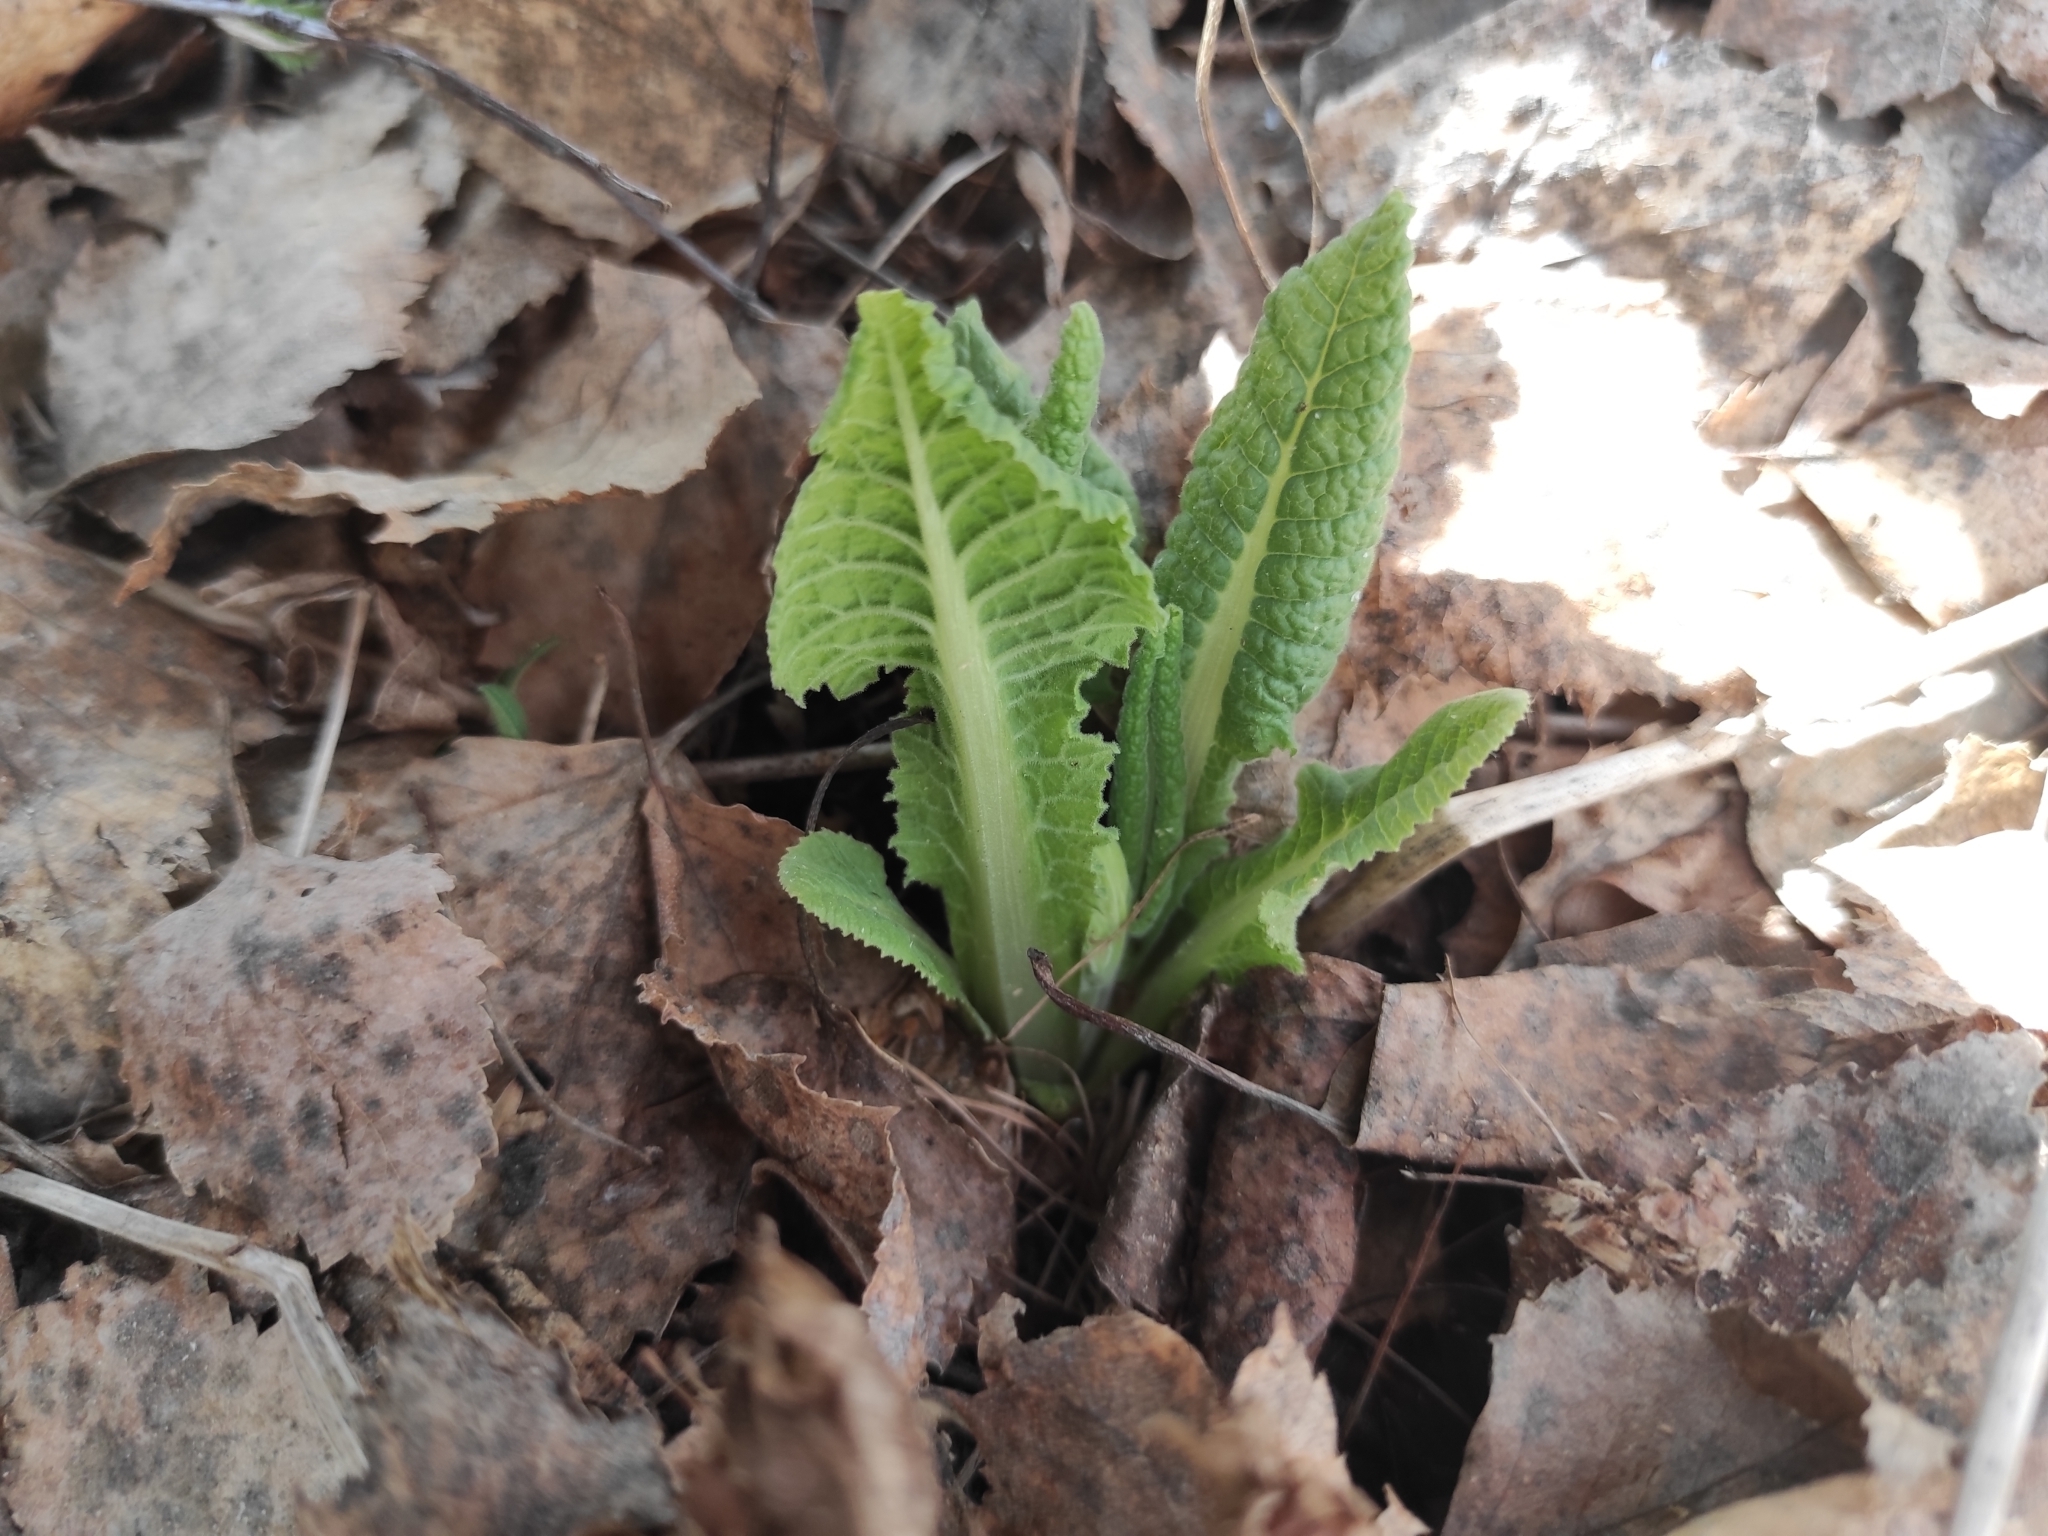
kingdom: Plantae
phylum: Tracheophyta
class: Magnoliopsida
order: Ericales
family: Primulaceae
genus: Primula
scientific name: Primula veris
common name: Cowslip
